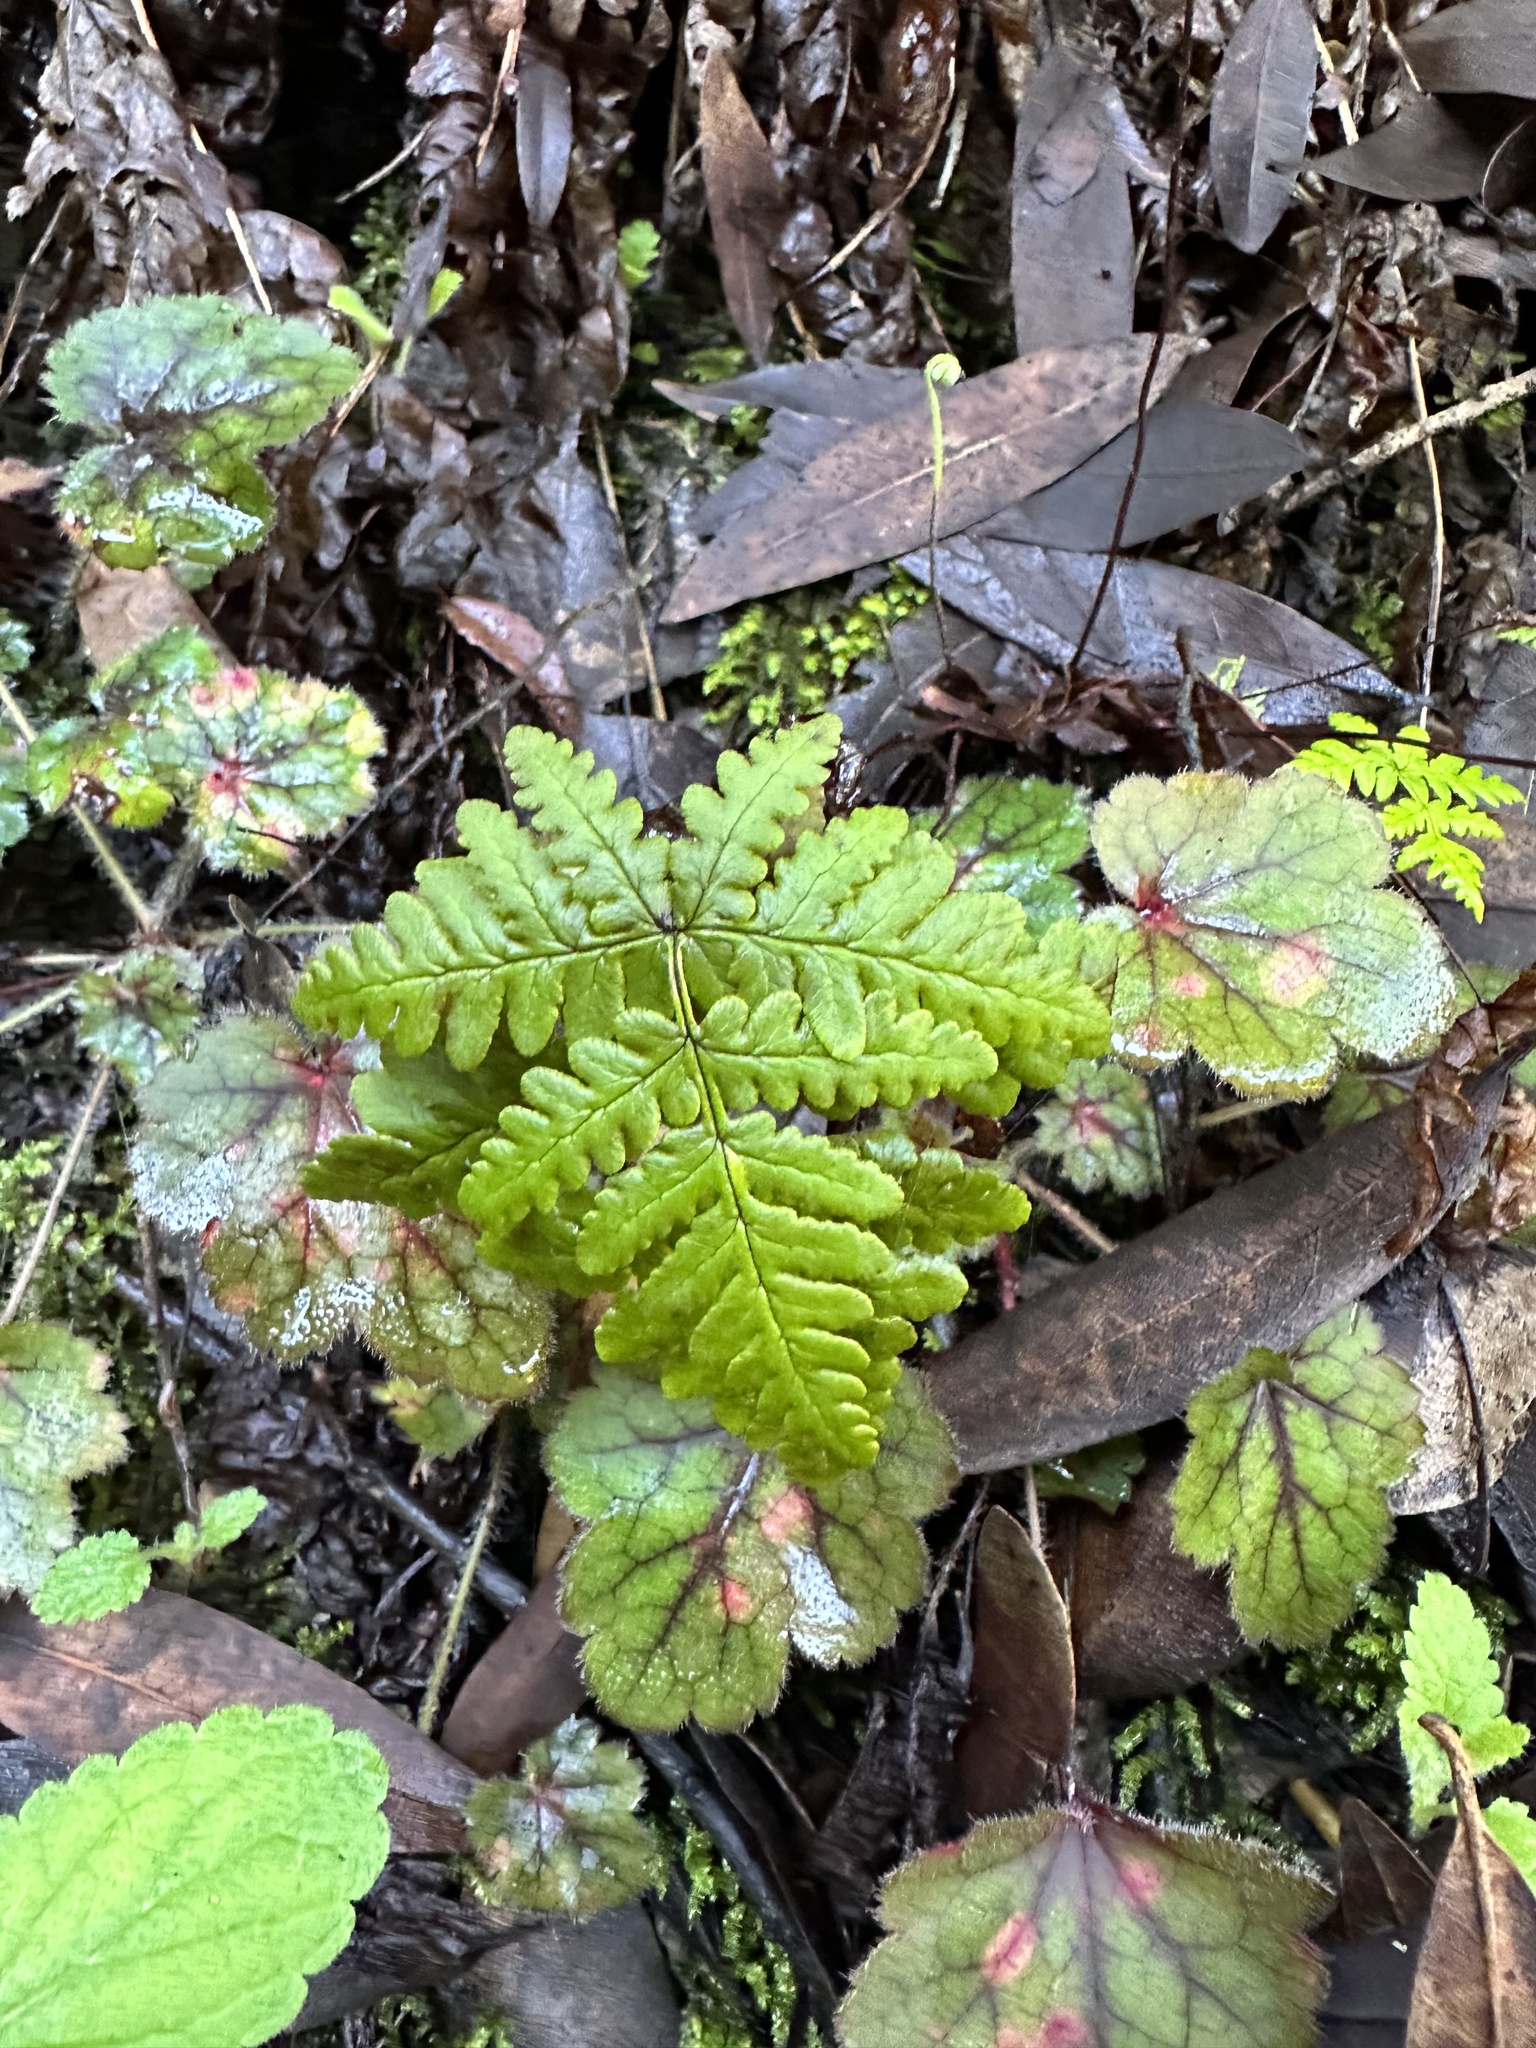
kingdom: Plantae
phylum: Tracheophyta
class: Polypodiopsida
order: Polypodiales
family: Pteridaceae
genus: Pentagramma
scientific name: Pentagramma triangularis
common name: Gold fern
